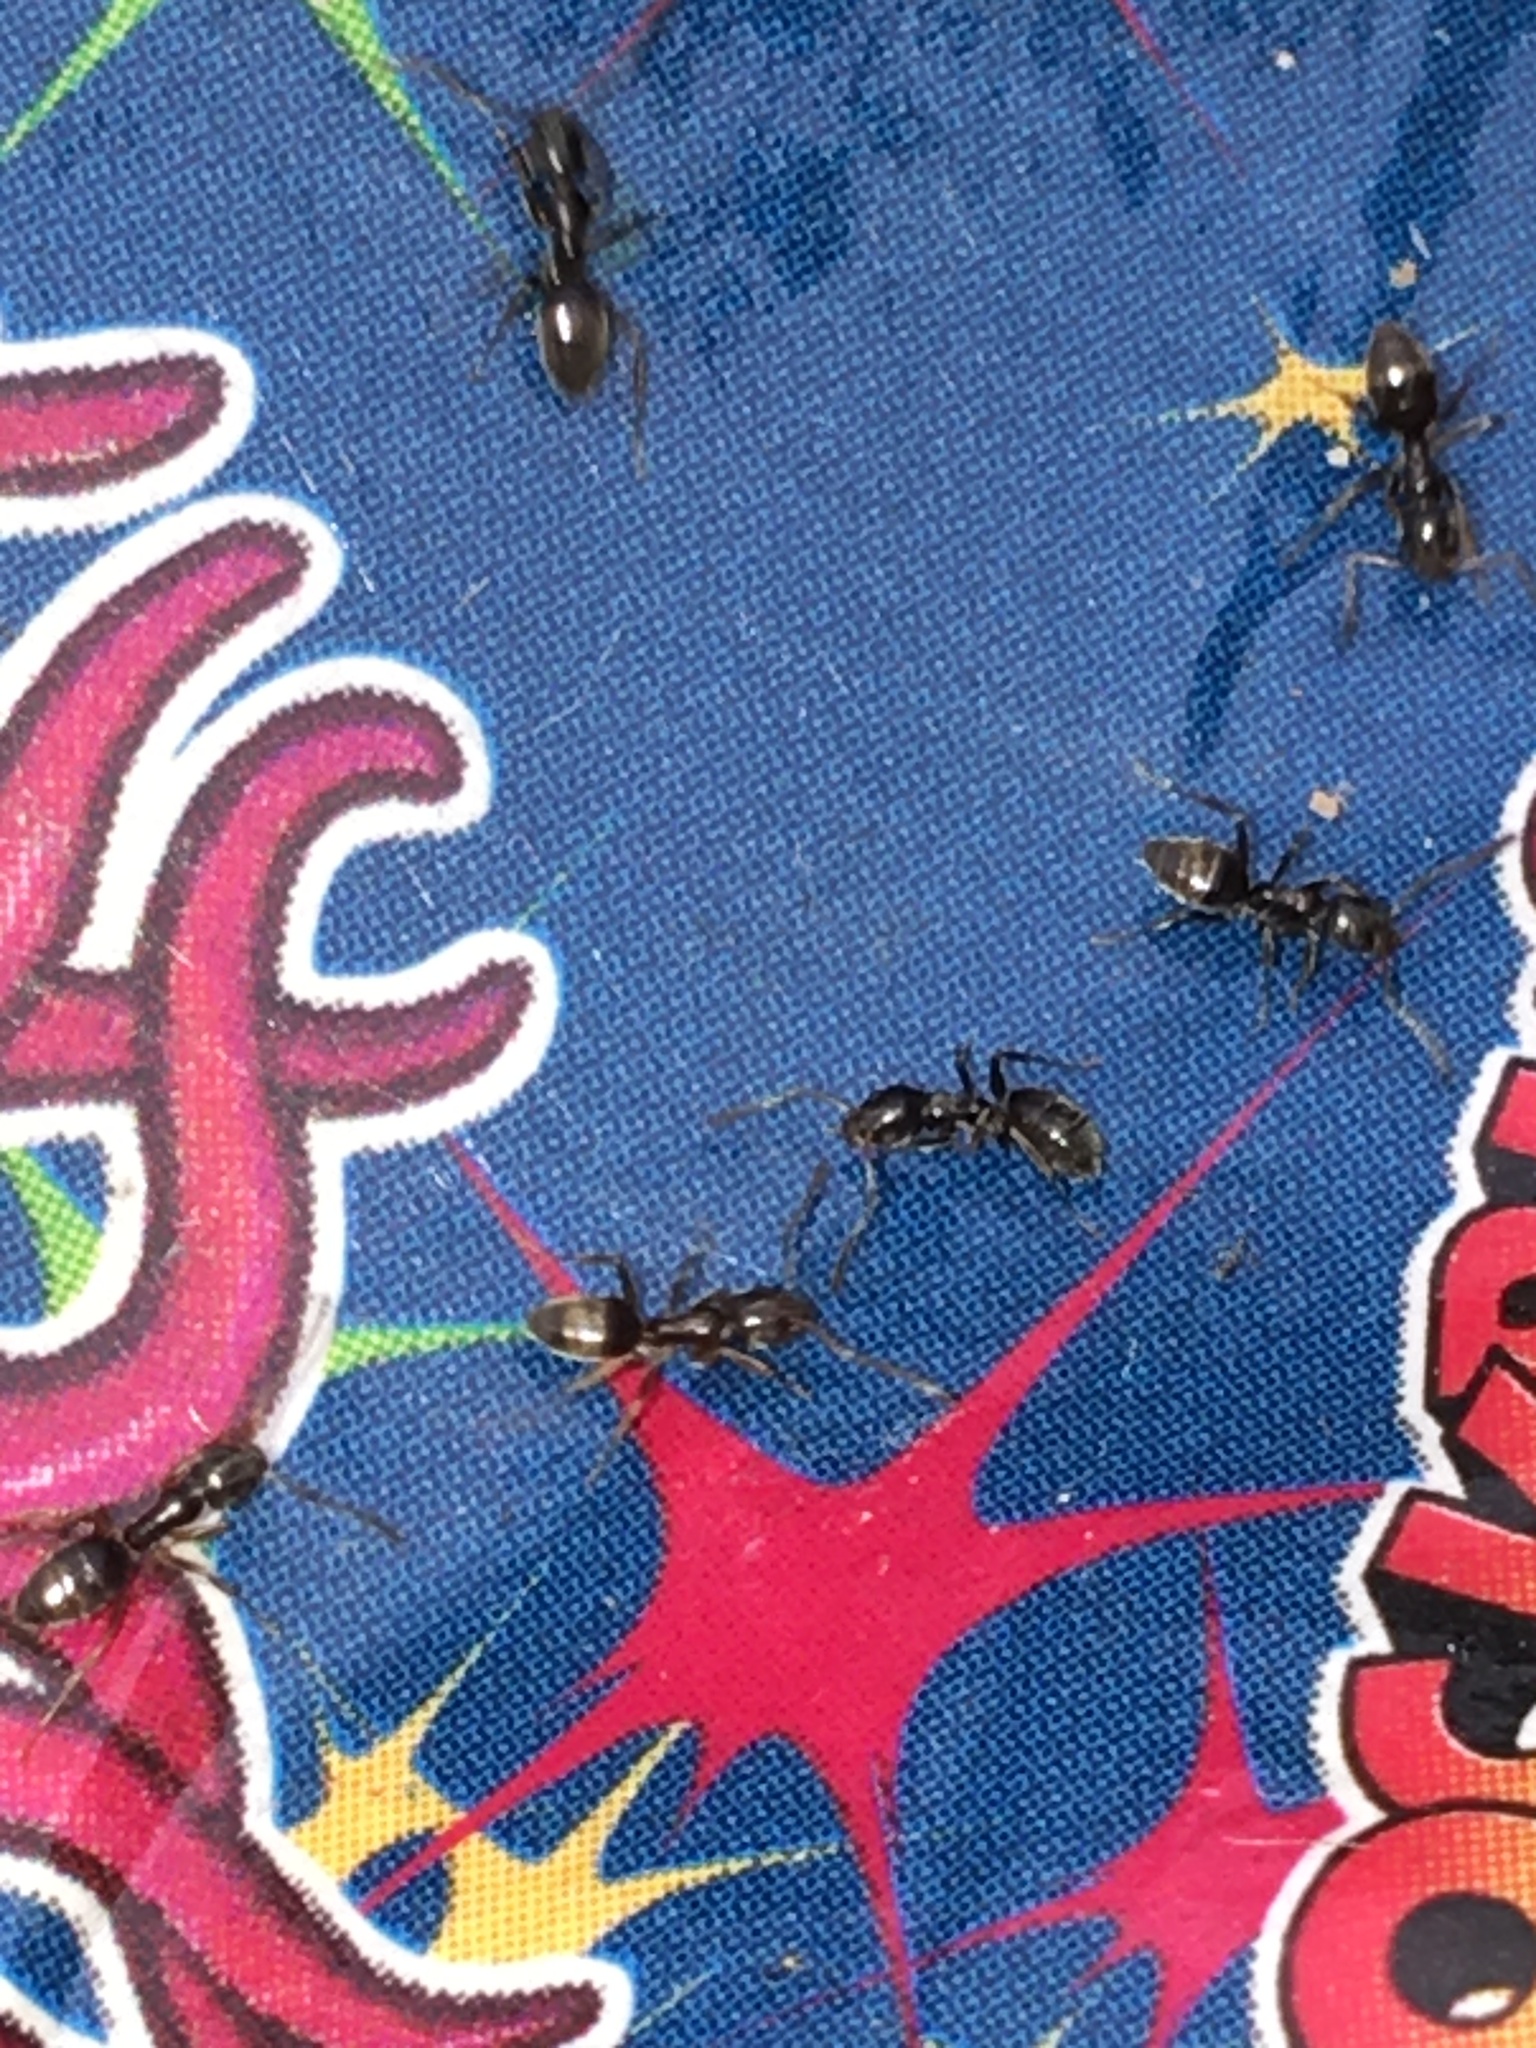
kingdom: Animalia
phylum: Arthropoda
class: Insecta
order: Hymenoptera
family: Formicidae
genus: Tapinoma
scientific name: Tapinoma sessile
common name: Odorous house ant
